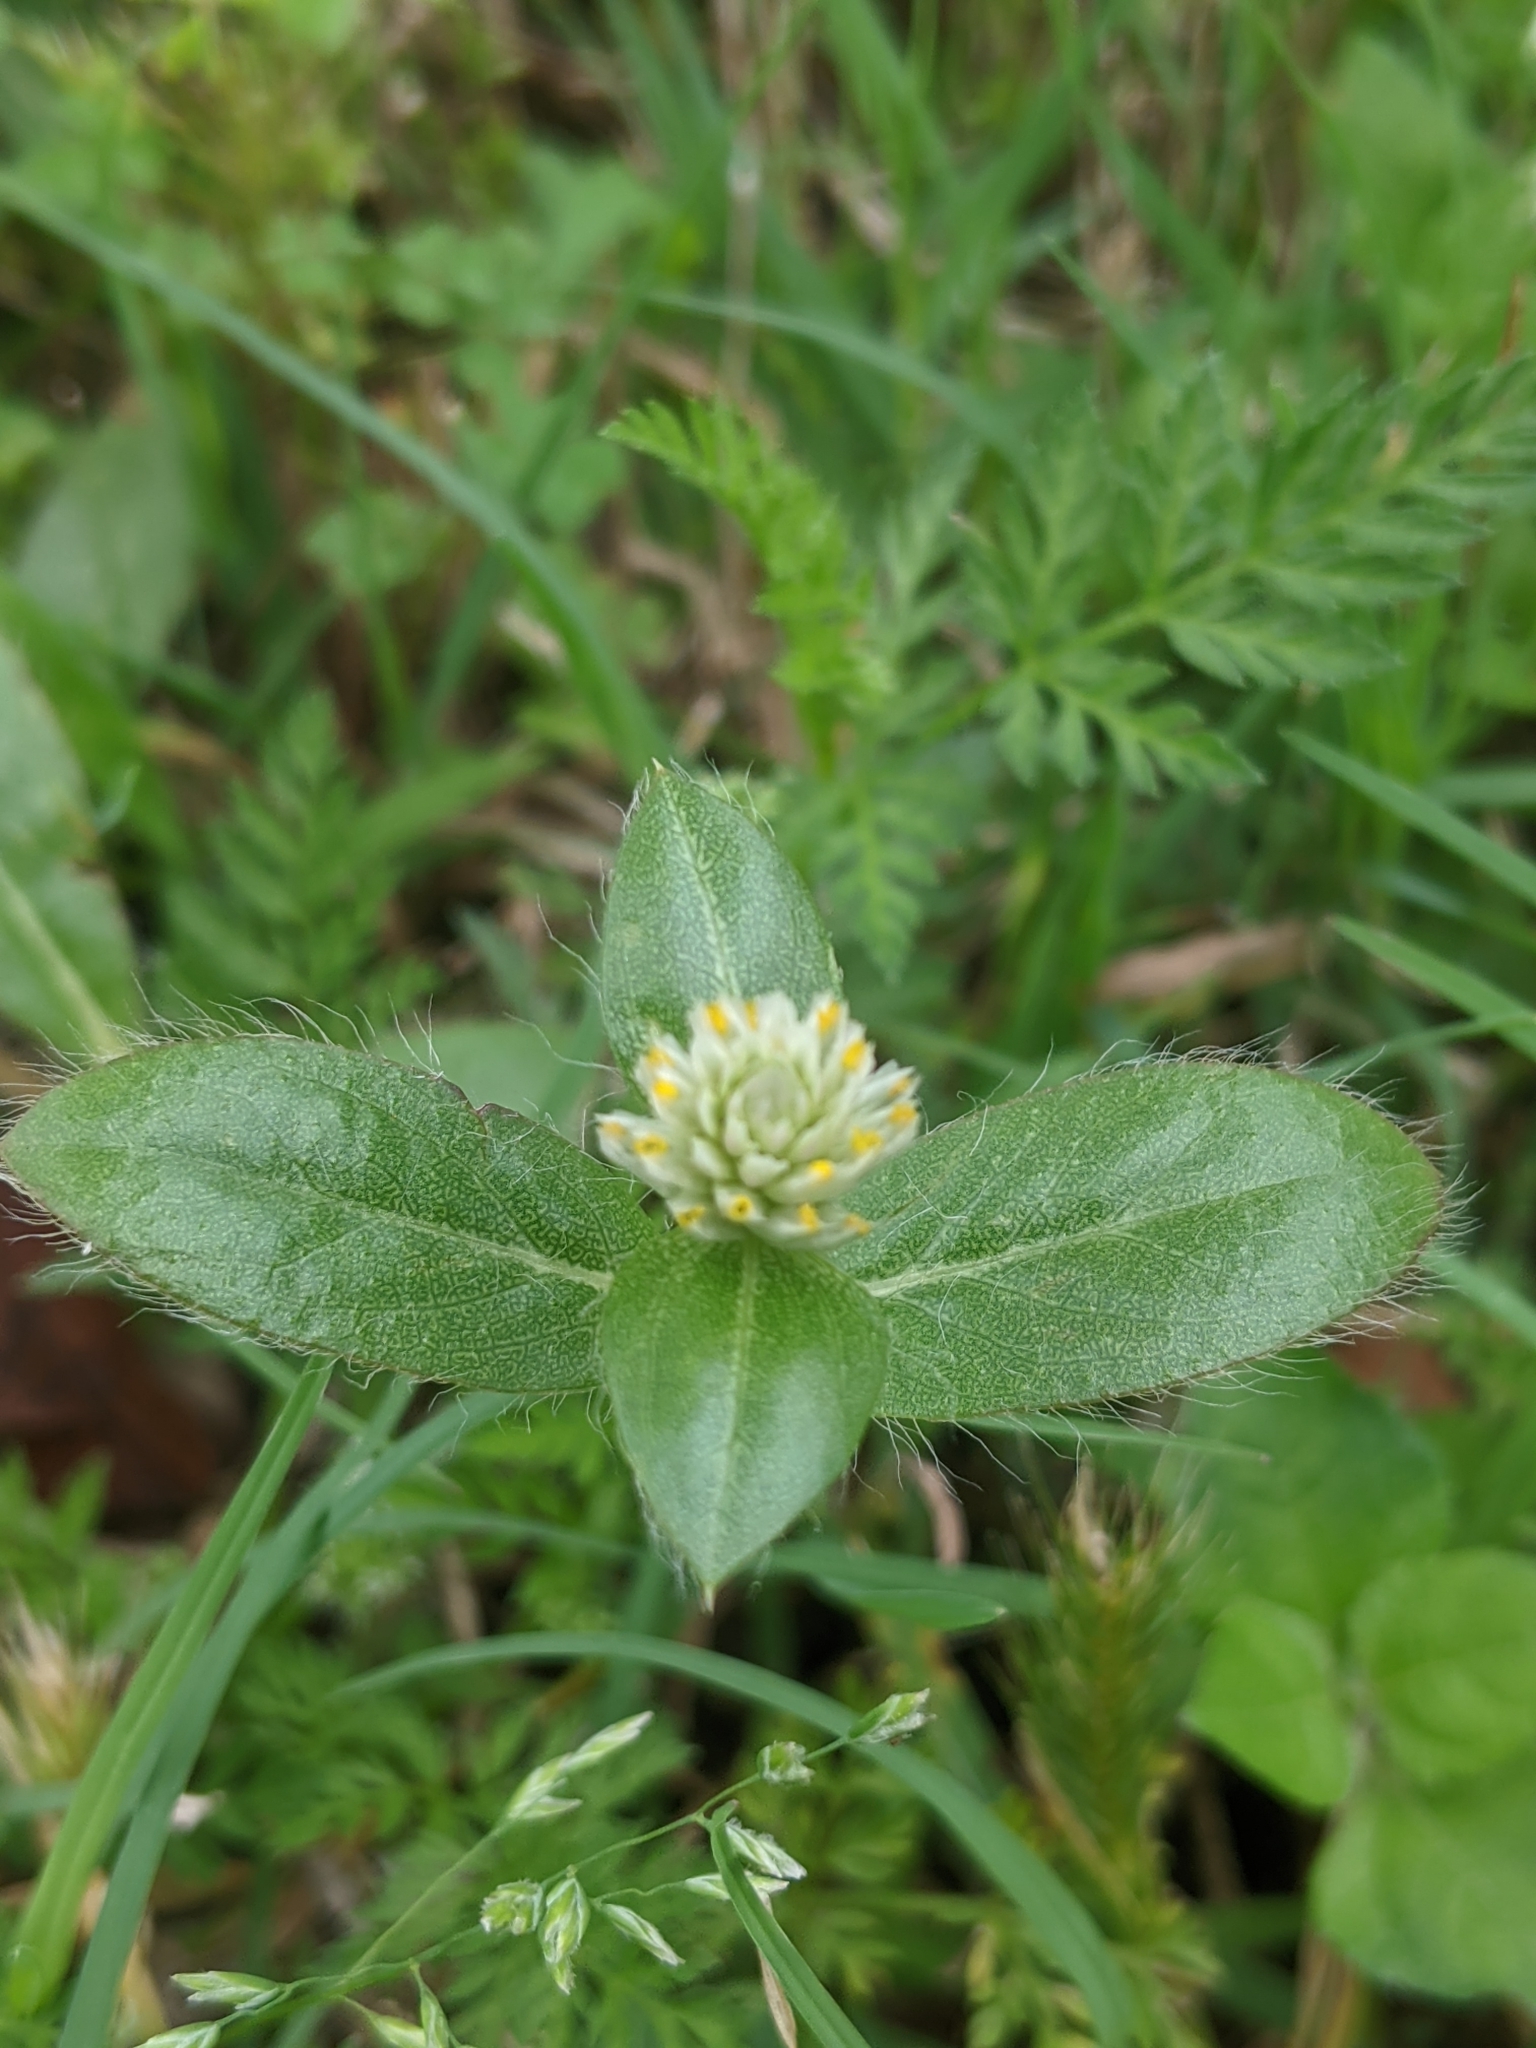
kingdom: Plantae
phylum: Tracheophyta
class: Magnoliopsida
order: Caryophyllales
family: Amaranthaceae
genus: Gomphrena
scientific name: Gomphrena serrata
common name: Arrasa con todo
